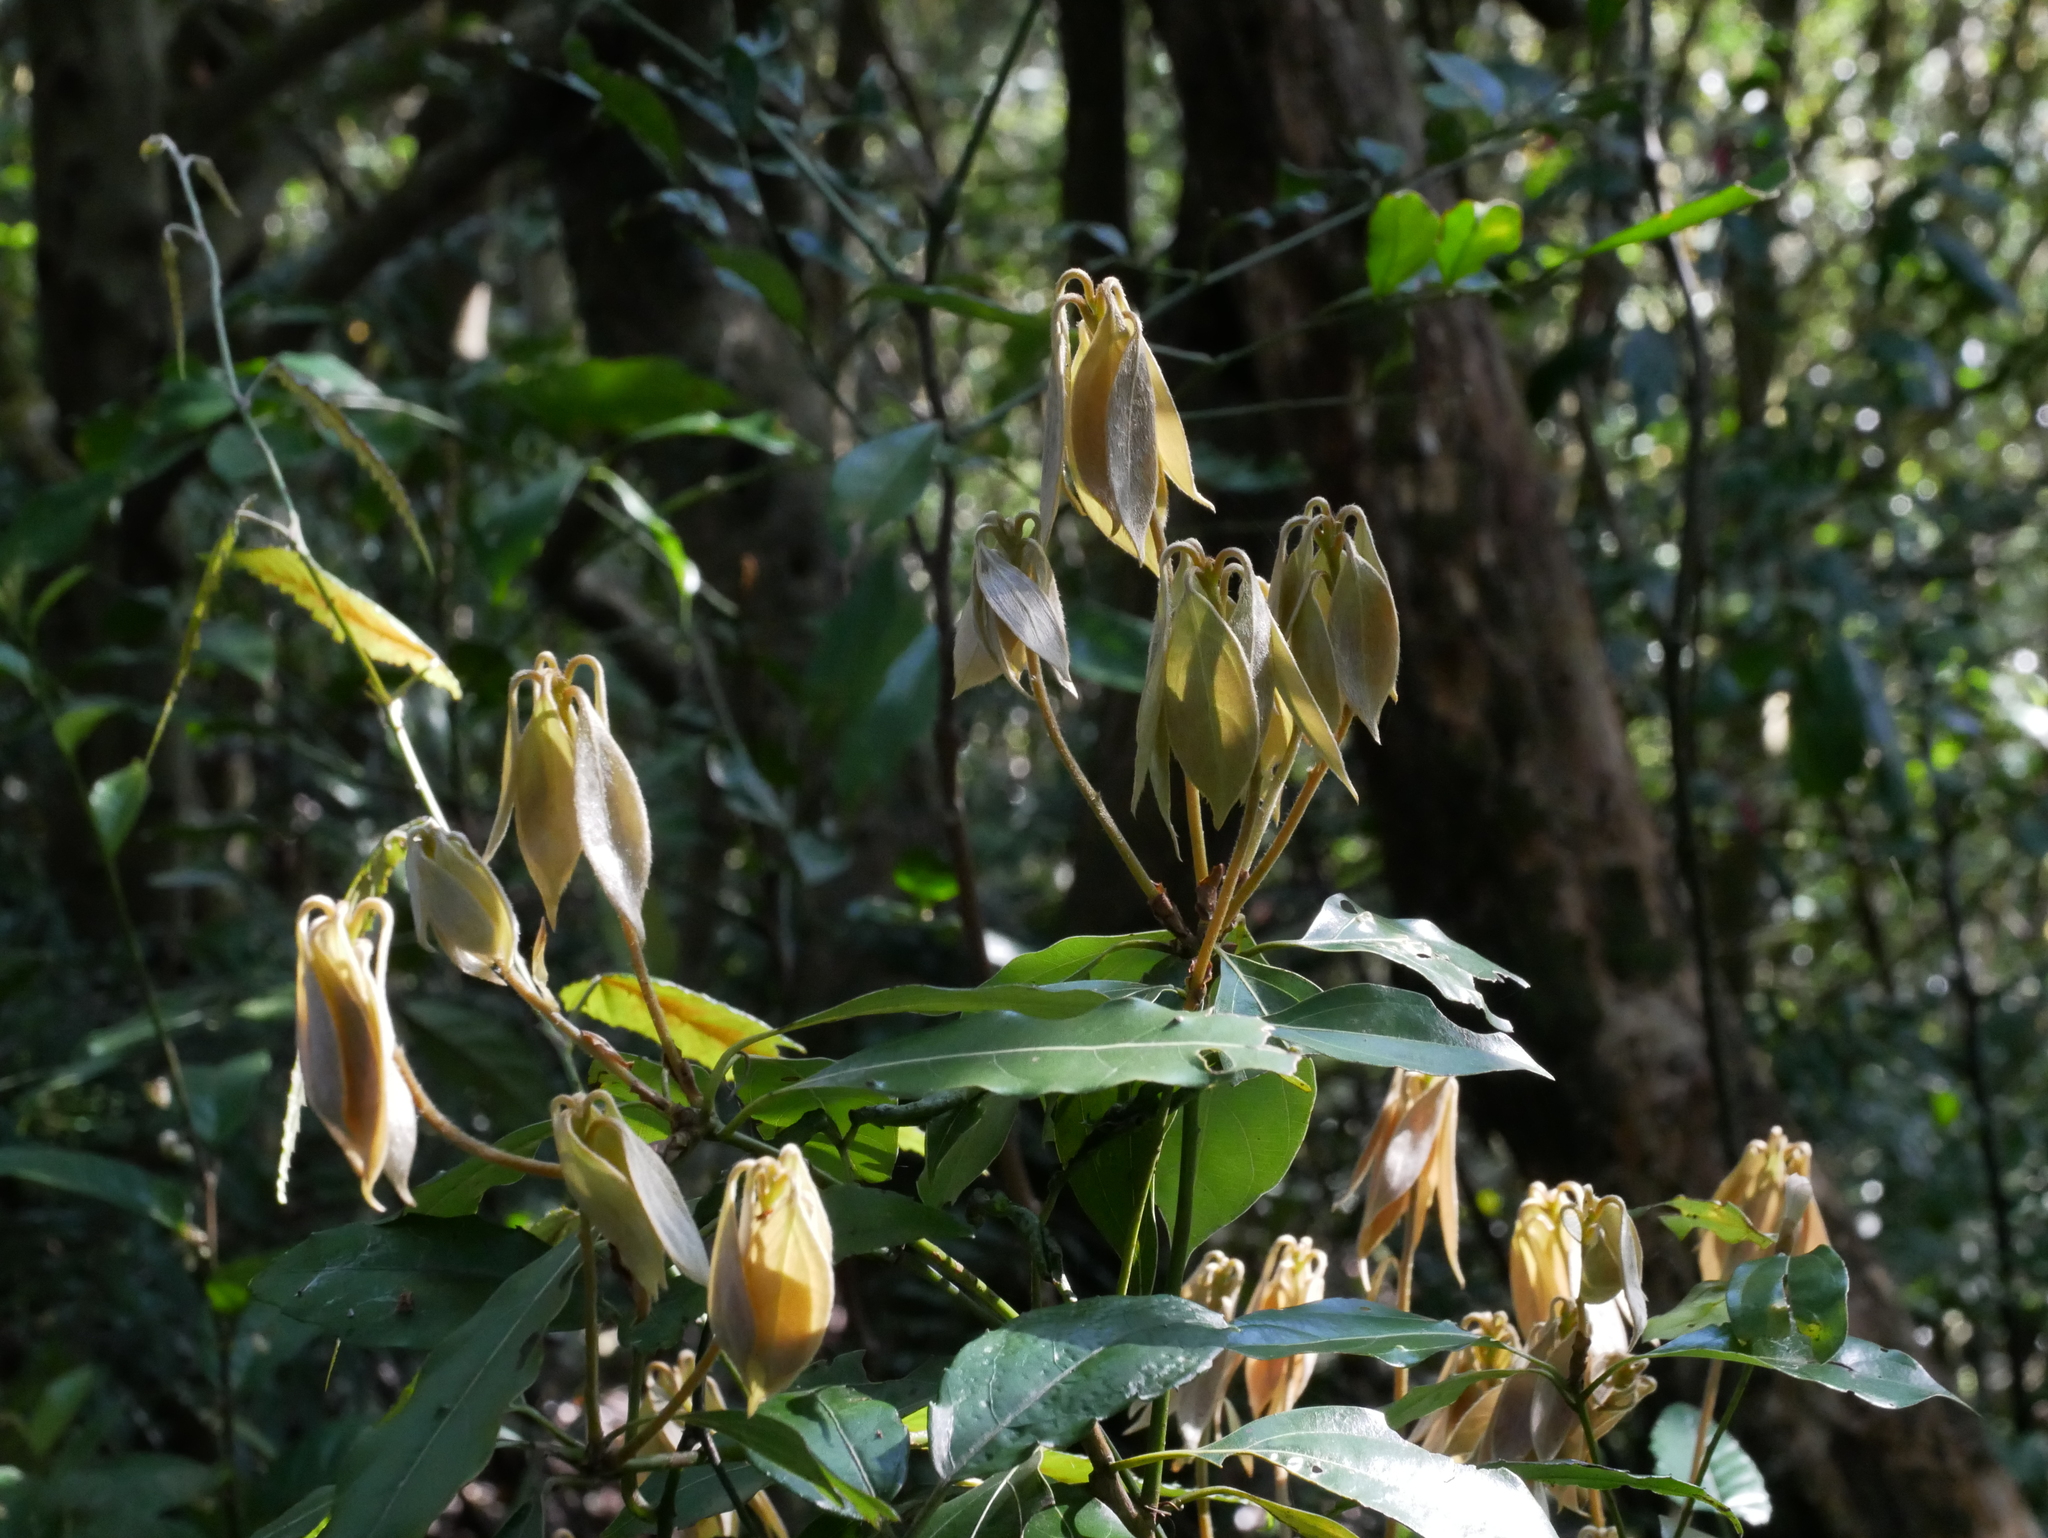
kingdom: Plantae
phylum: Tracheophyta
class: Magnoliopsida
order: Laurales
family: Lauraceae
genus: Neolitsea
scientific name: Neolitsea sericea
